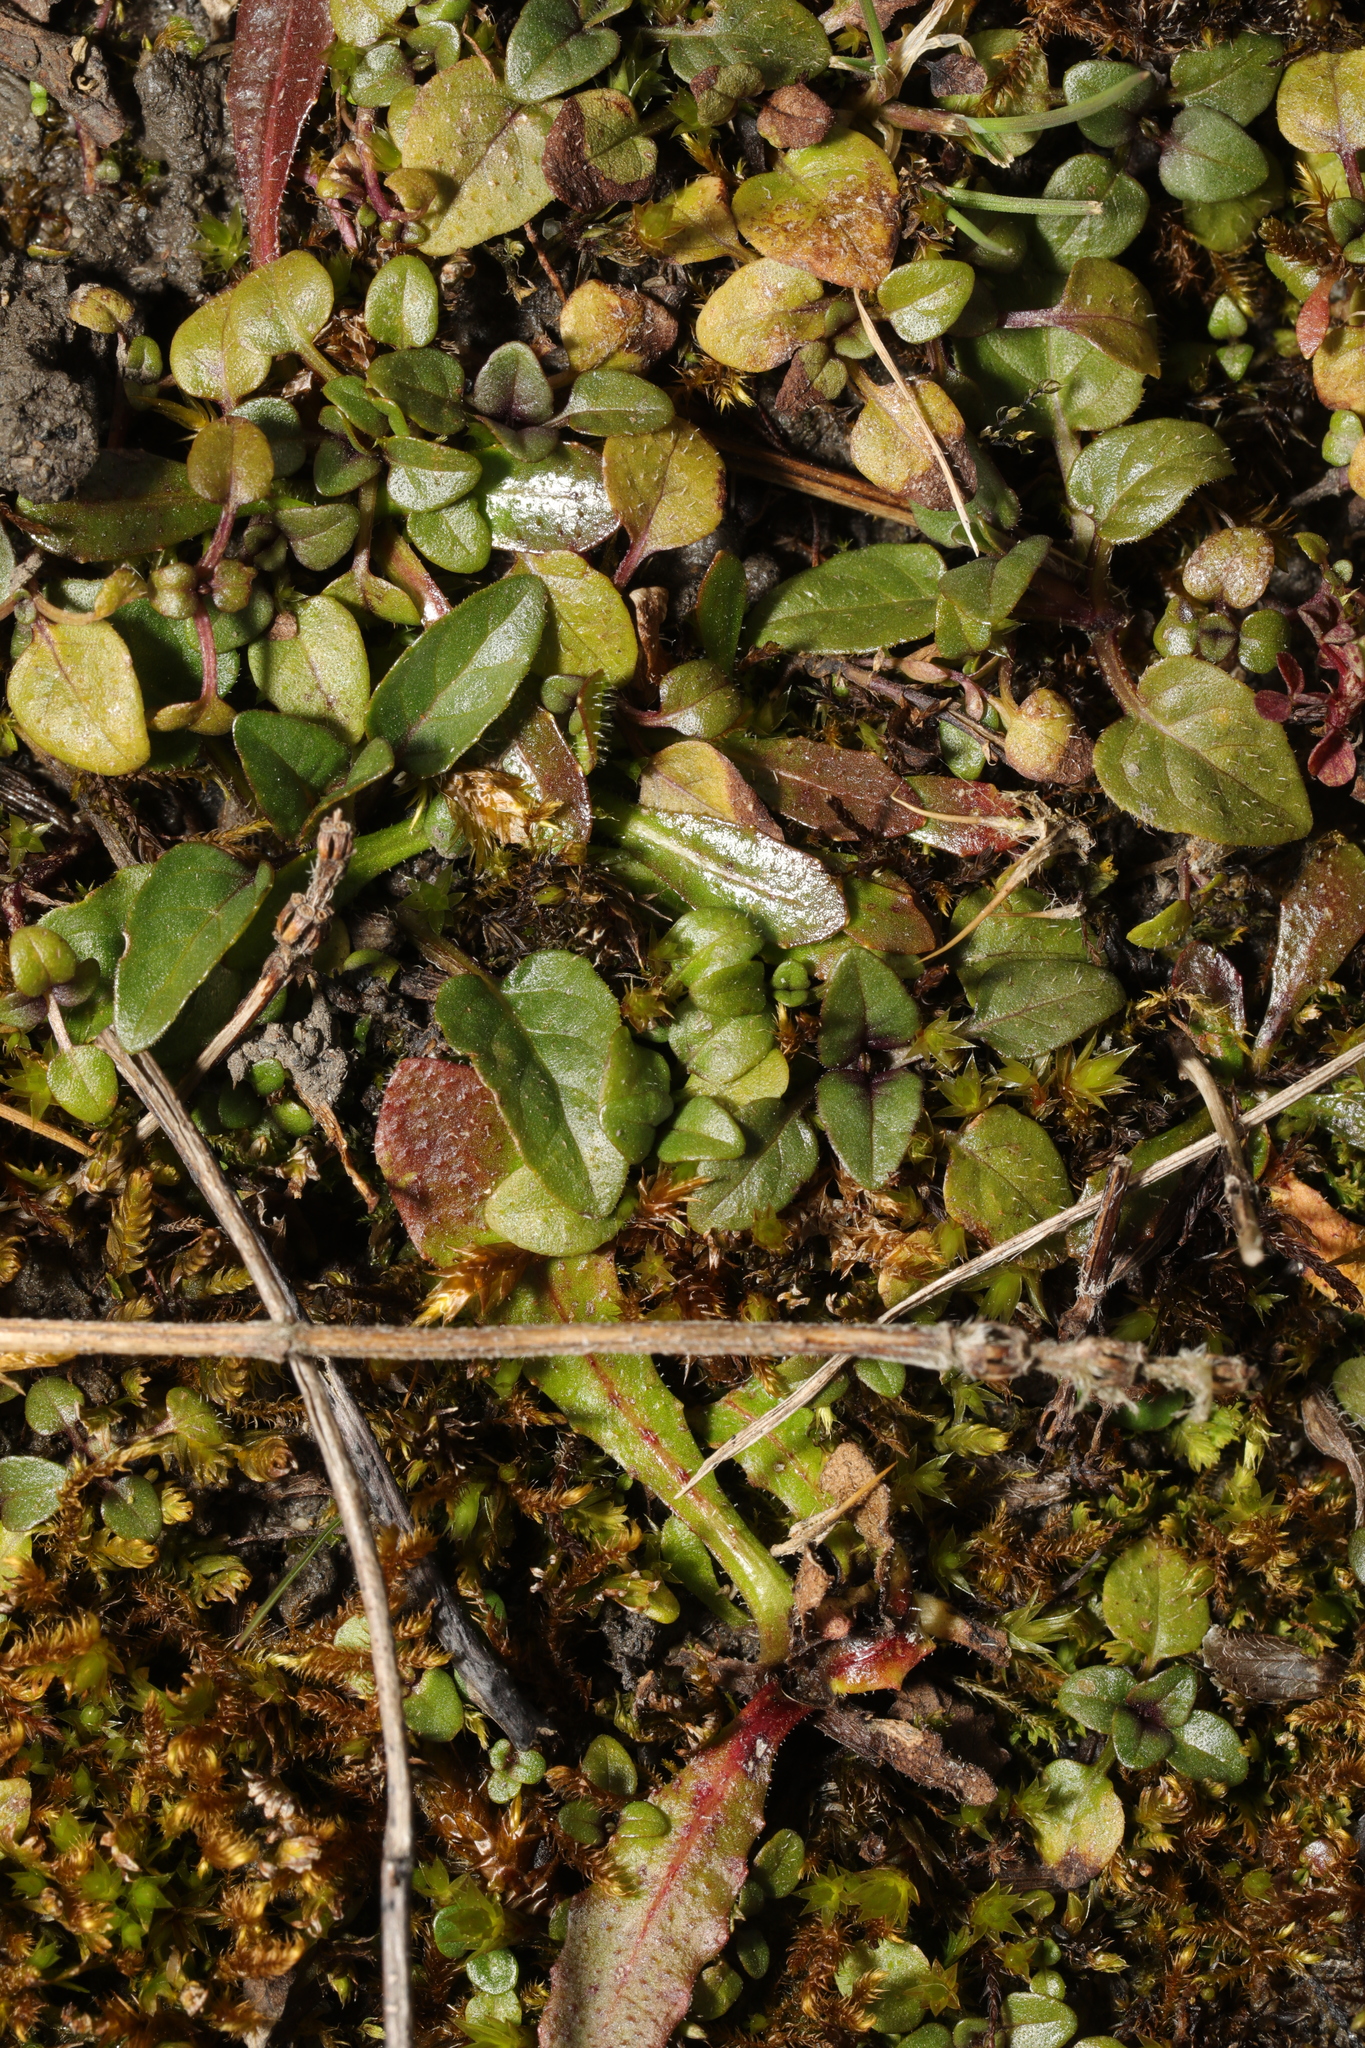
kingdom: Plantae
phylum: Tracheophyta
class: Magnoliopsida
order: Lamiales
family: Lamiaceae
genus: Prunella
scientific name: Prunella vulgaris
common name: Heal-all
